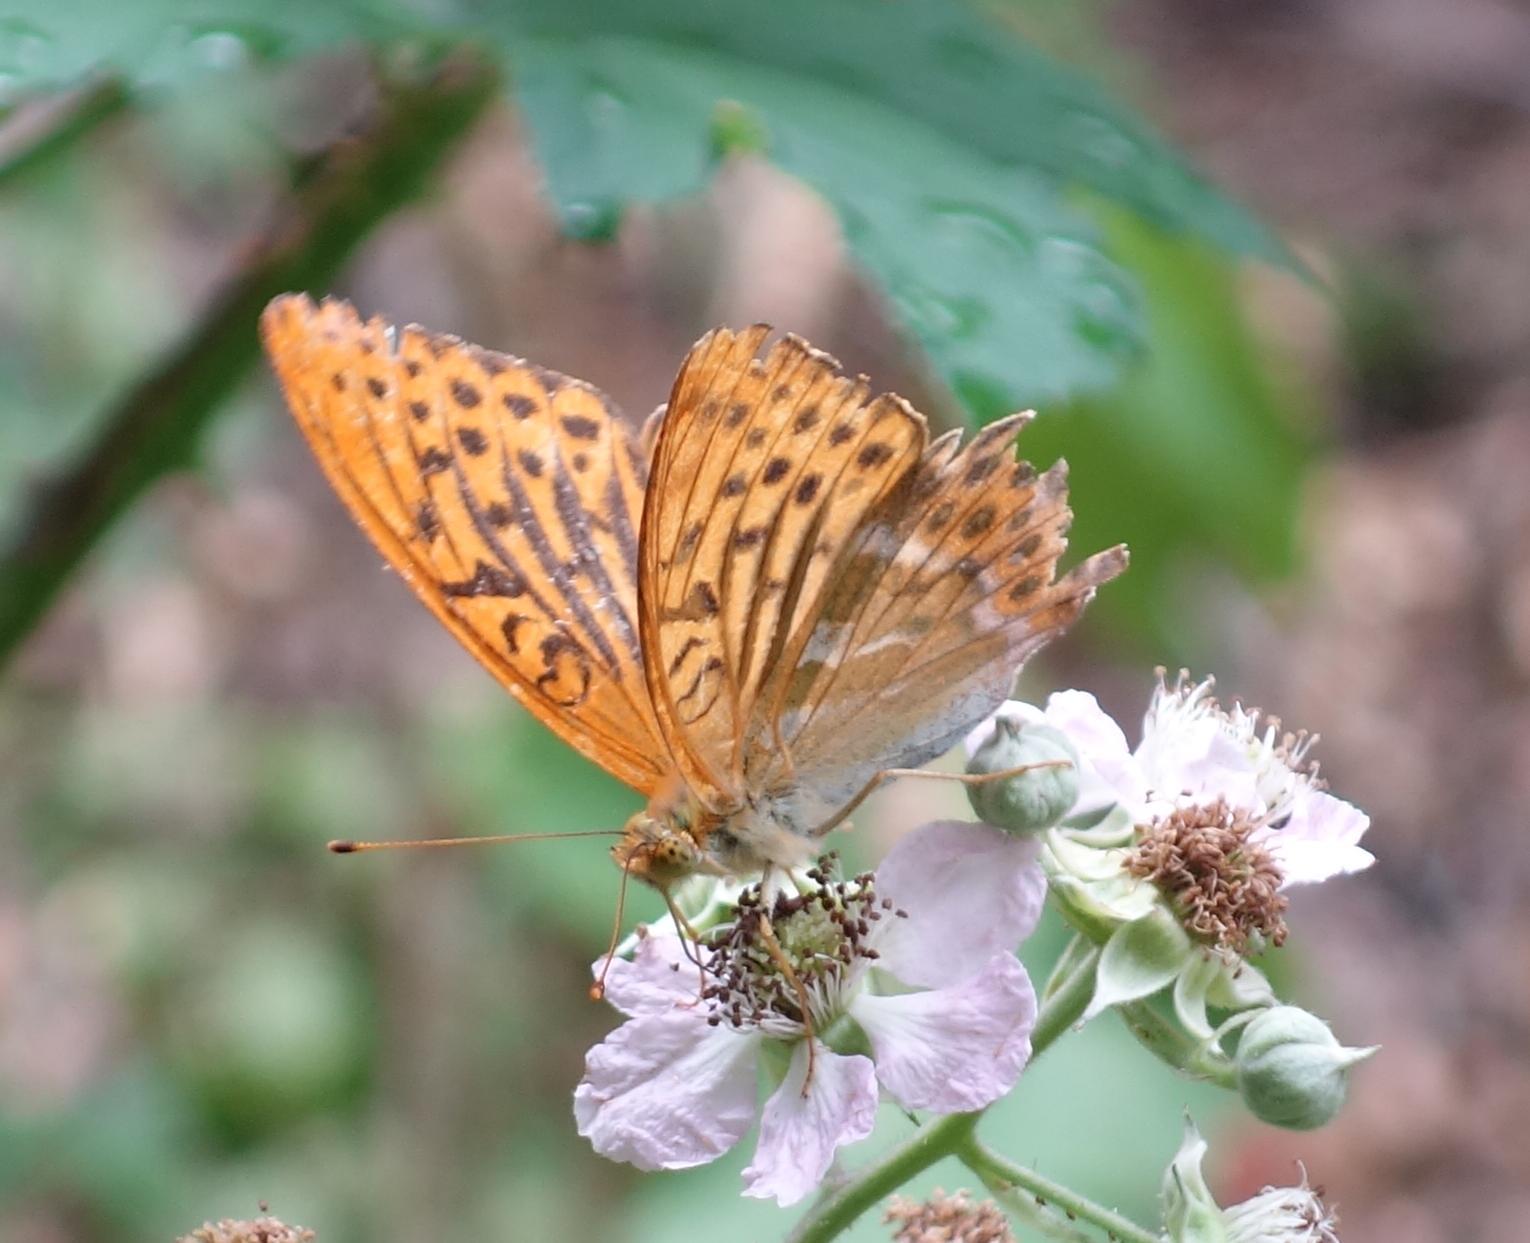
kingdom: Animalia
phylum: Arthropoda
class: Insecta
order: Lepidoptera
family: Nymphalidae
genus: Argynnis
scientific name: Argynnis paphia
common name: Silver-washed fritillary
